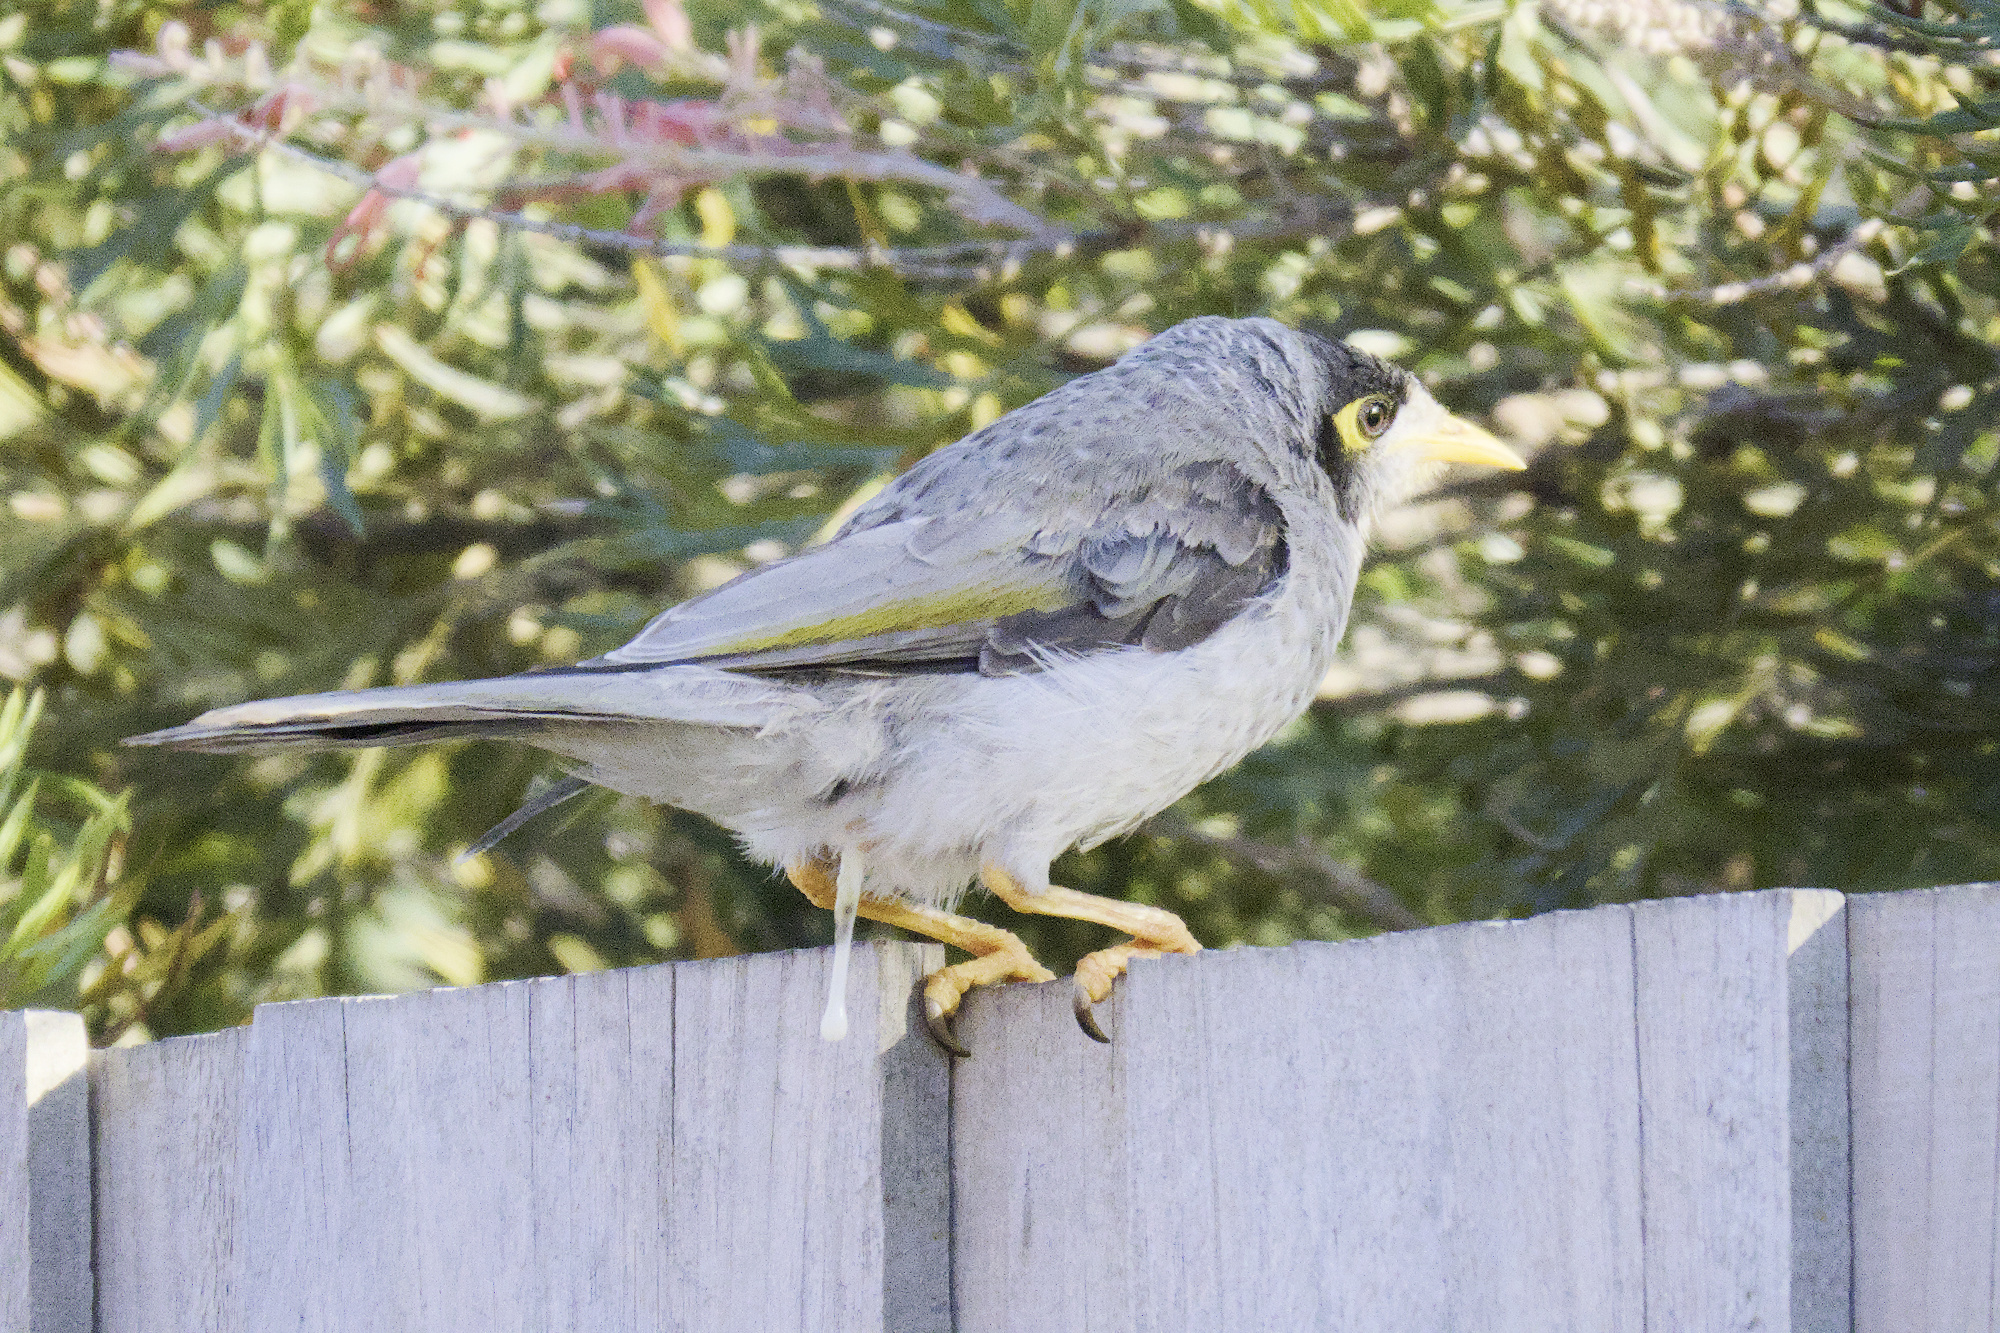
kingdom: Animalia
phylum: Chordata
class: Aves
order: Passeriformes
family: Meliphagidae
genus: Manorina
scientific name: Manorina melanocephala
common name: Noisy miner
